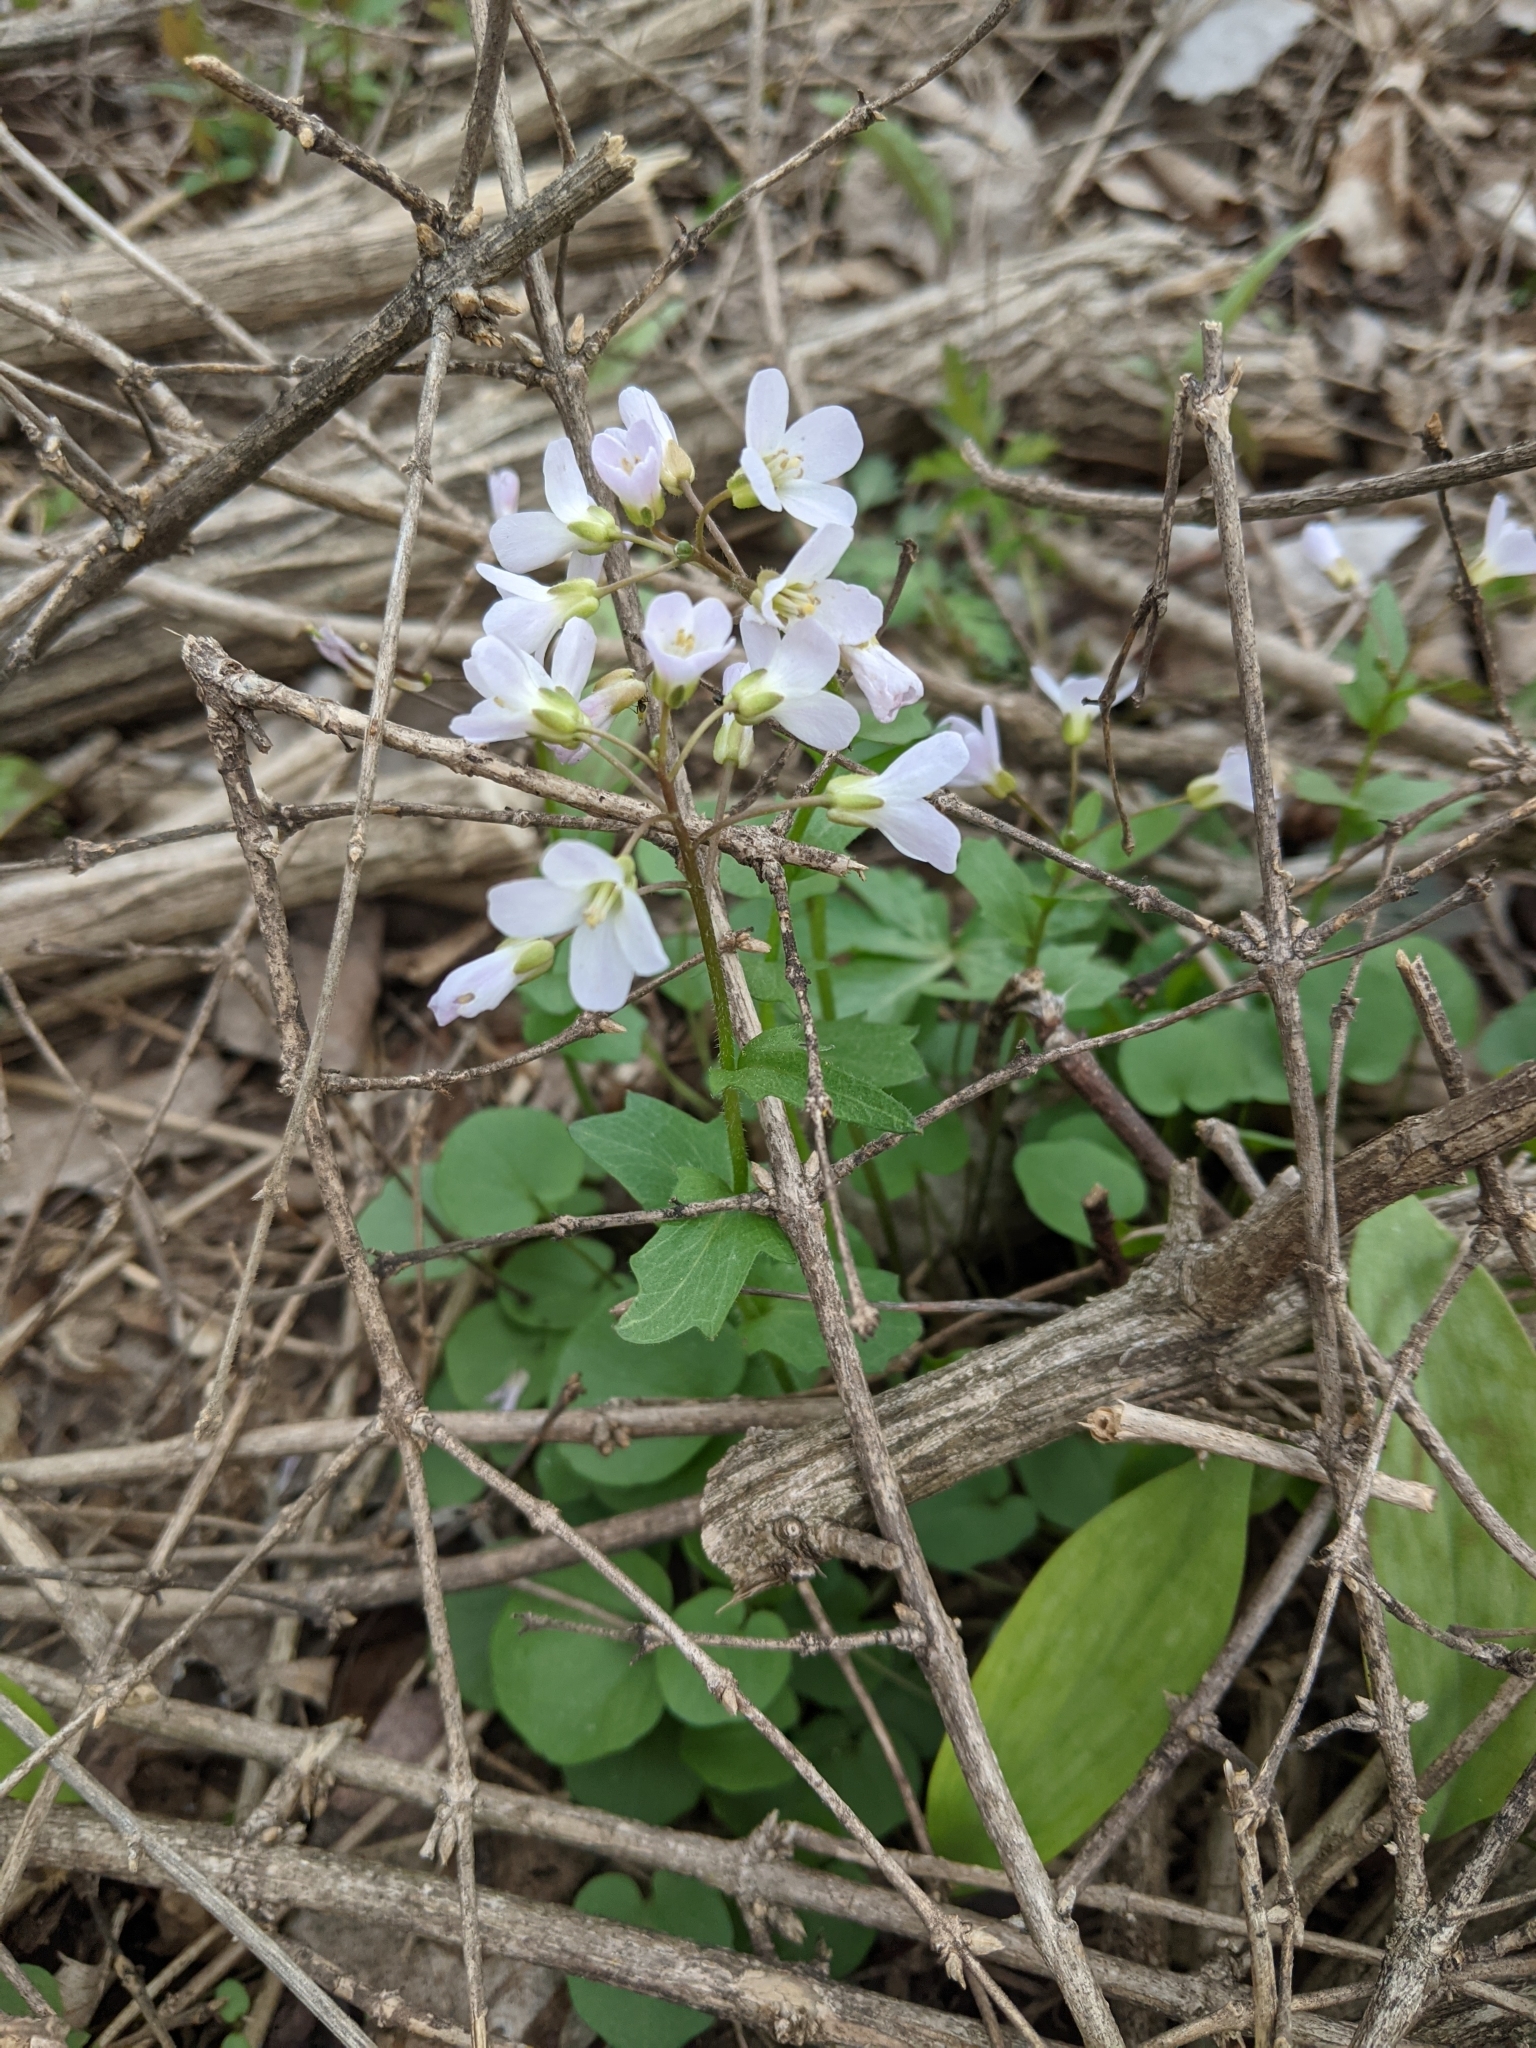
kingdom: Plantae
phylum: Tracheophyta
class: Magnoliopsida
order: Brassicales
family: Brassicaceae
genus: Cardamine
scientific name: Cardamine douglassii
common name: Purple cress
